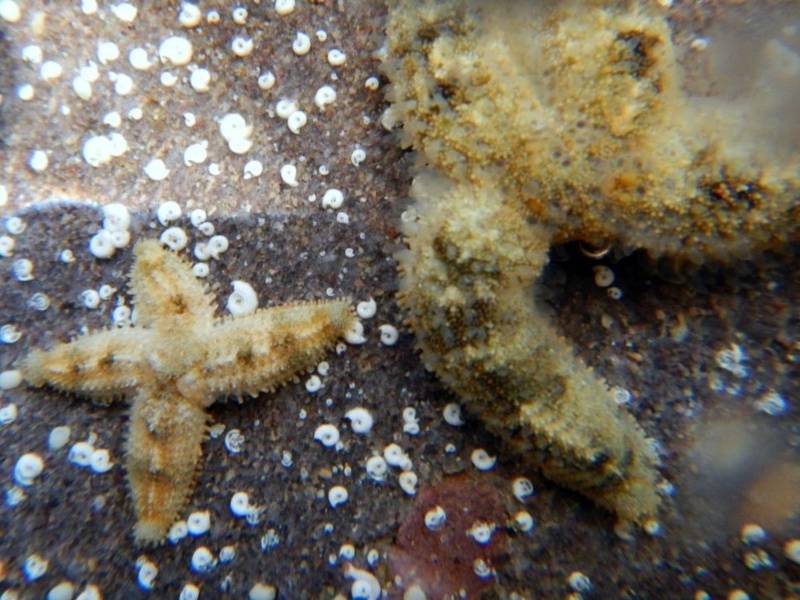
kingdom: Animalia
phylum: Echinodermata
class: Asteroidea
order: Forcipulatida
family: Asteriidae
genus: Coscinasterias
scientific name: Coscinasterias muricata
